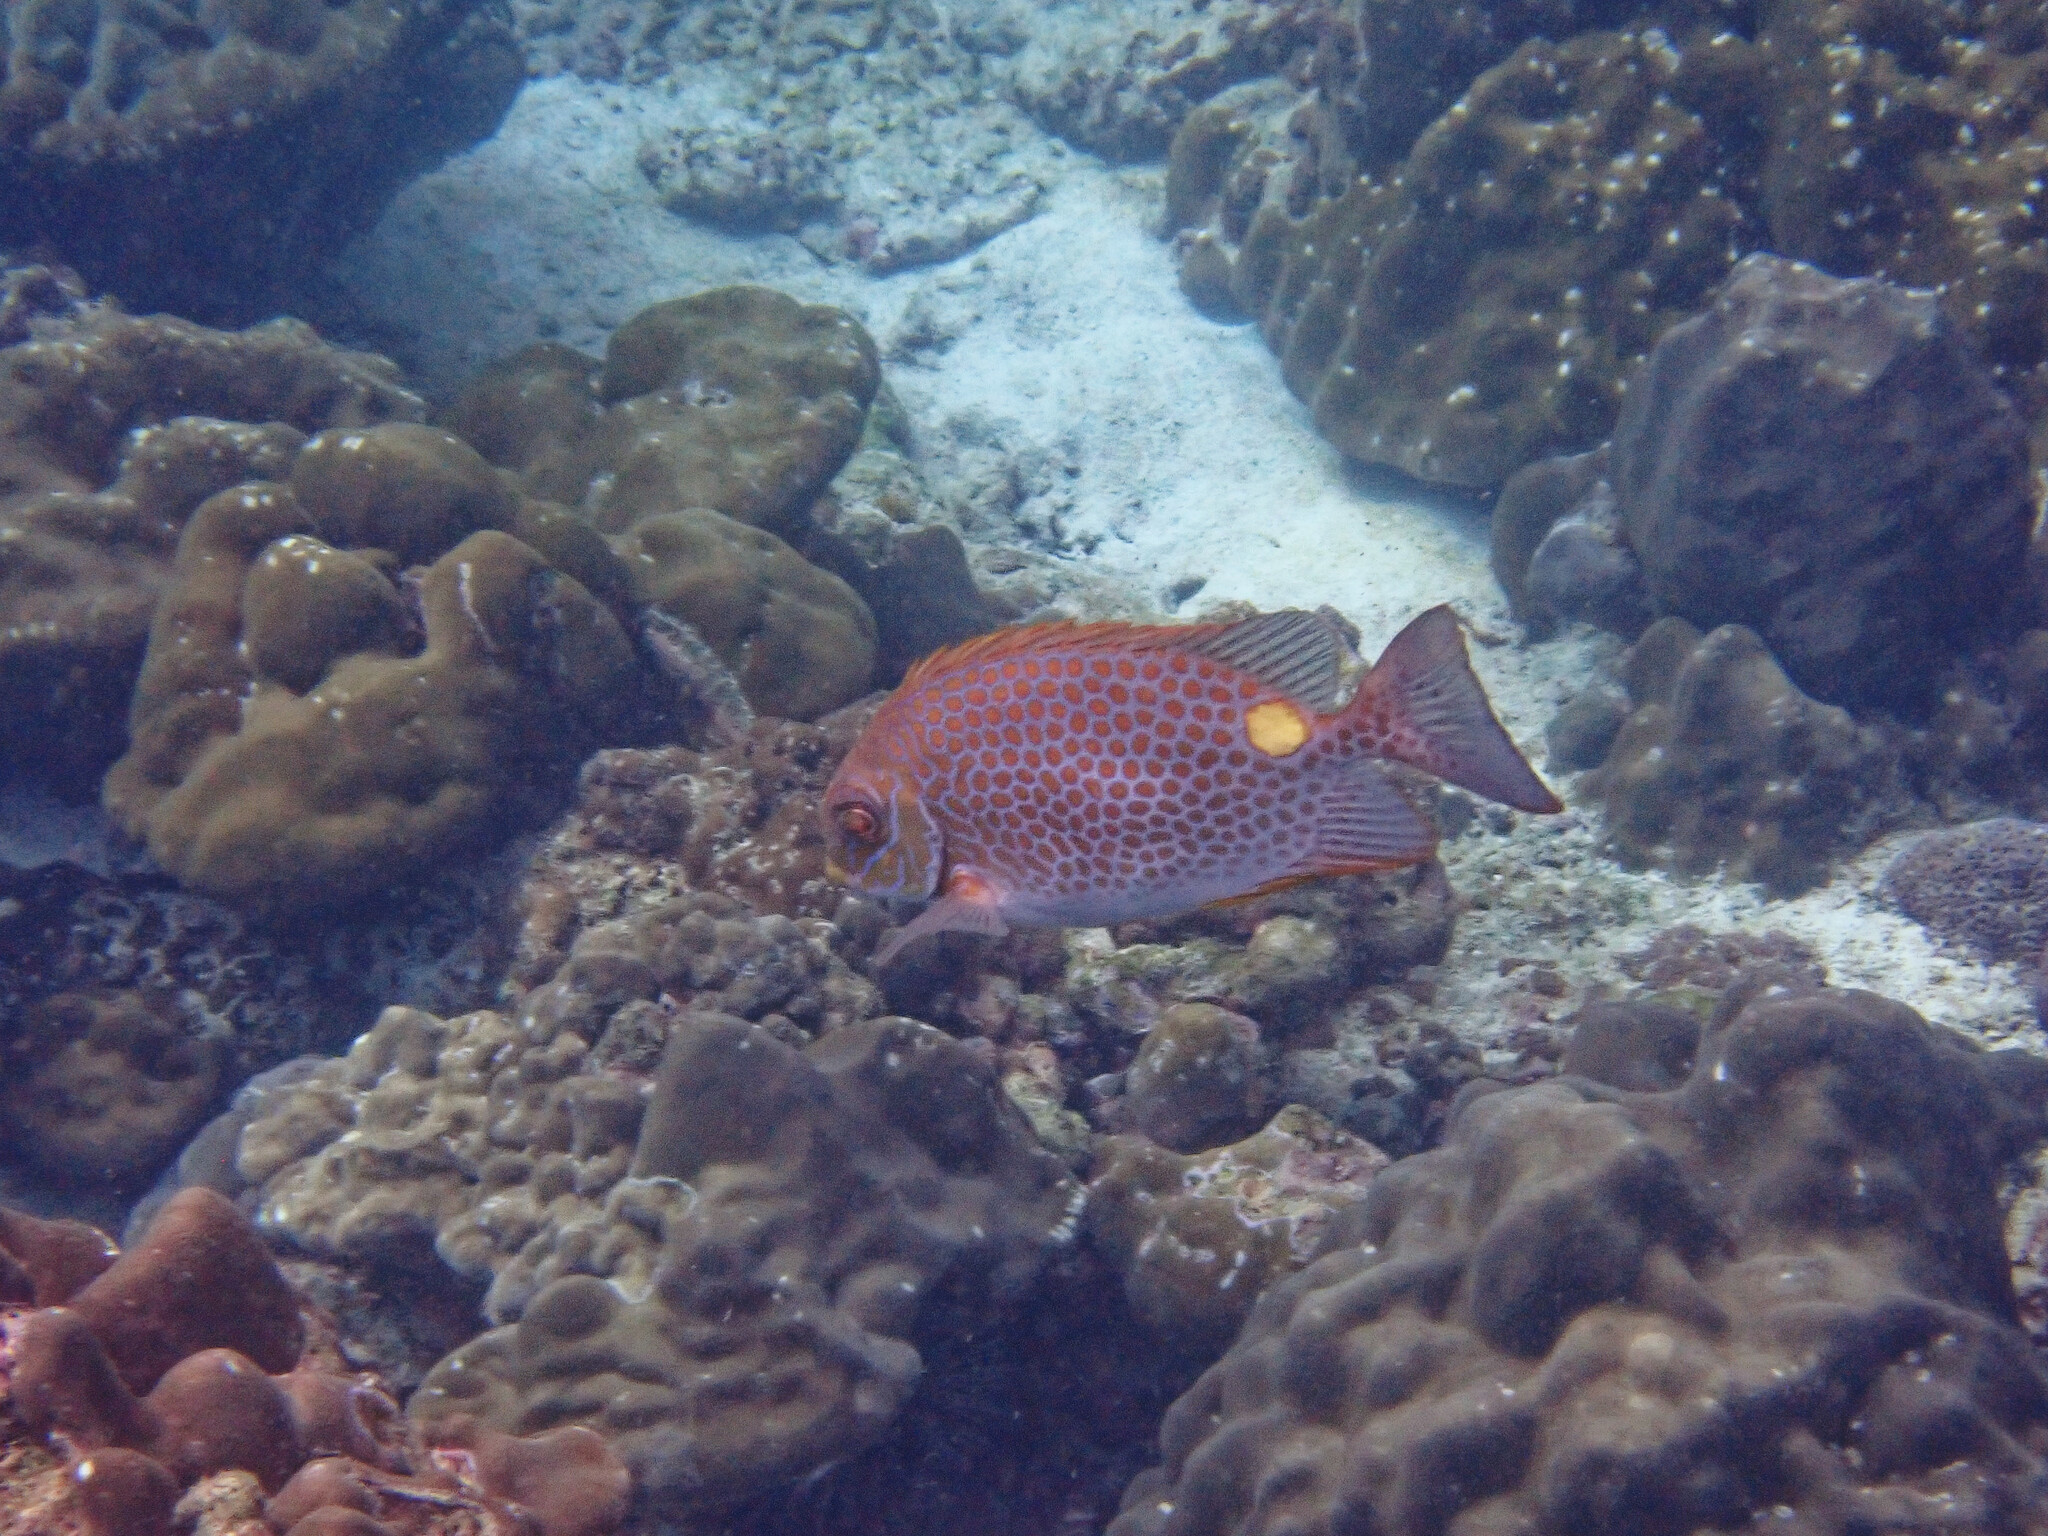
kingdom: Animalia
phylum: Chordata
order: Perciformes
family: Siganidae
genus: Siganus
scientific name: Siganus guttatus
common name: Golden rabbitfish
